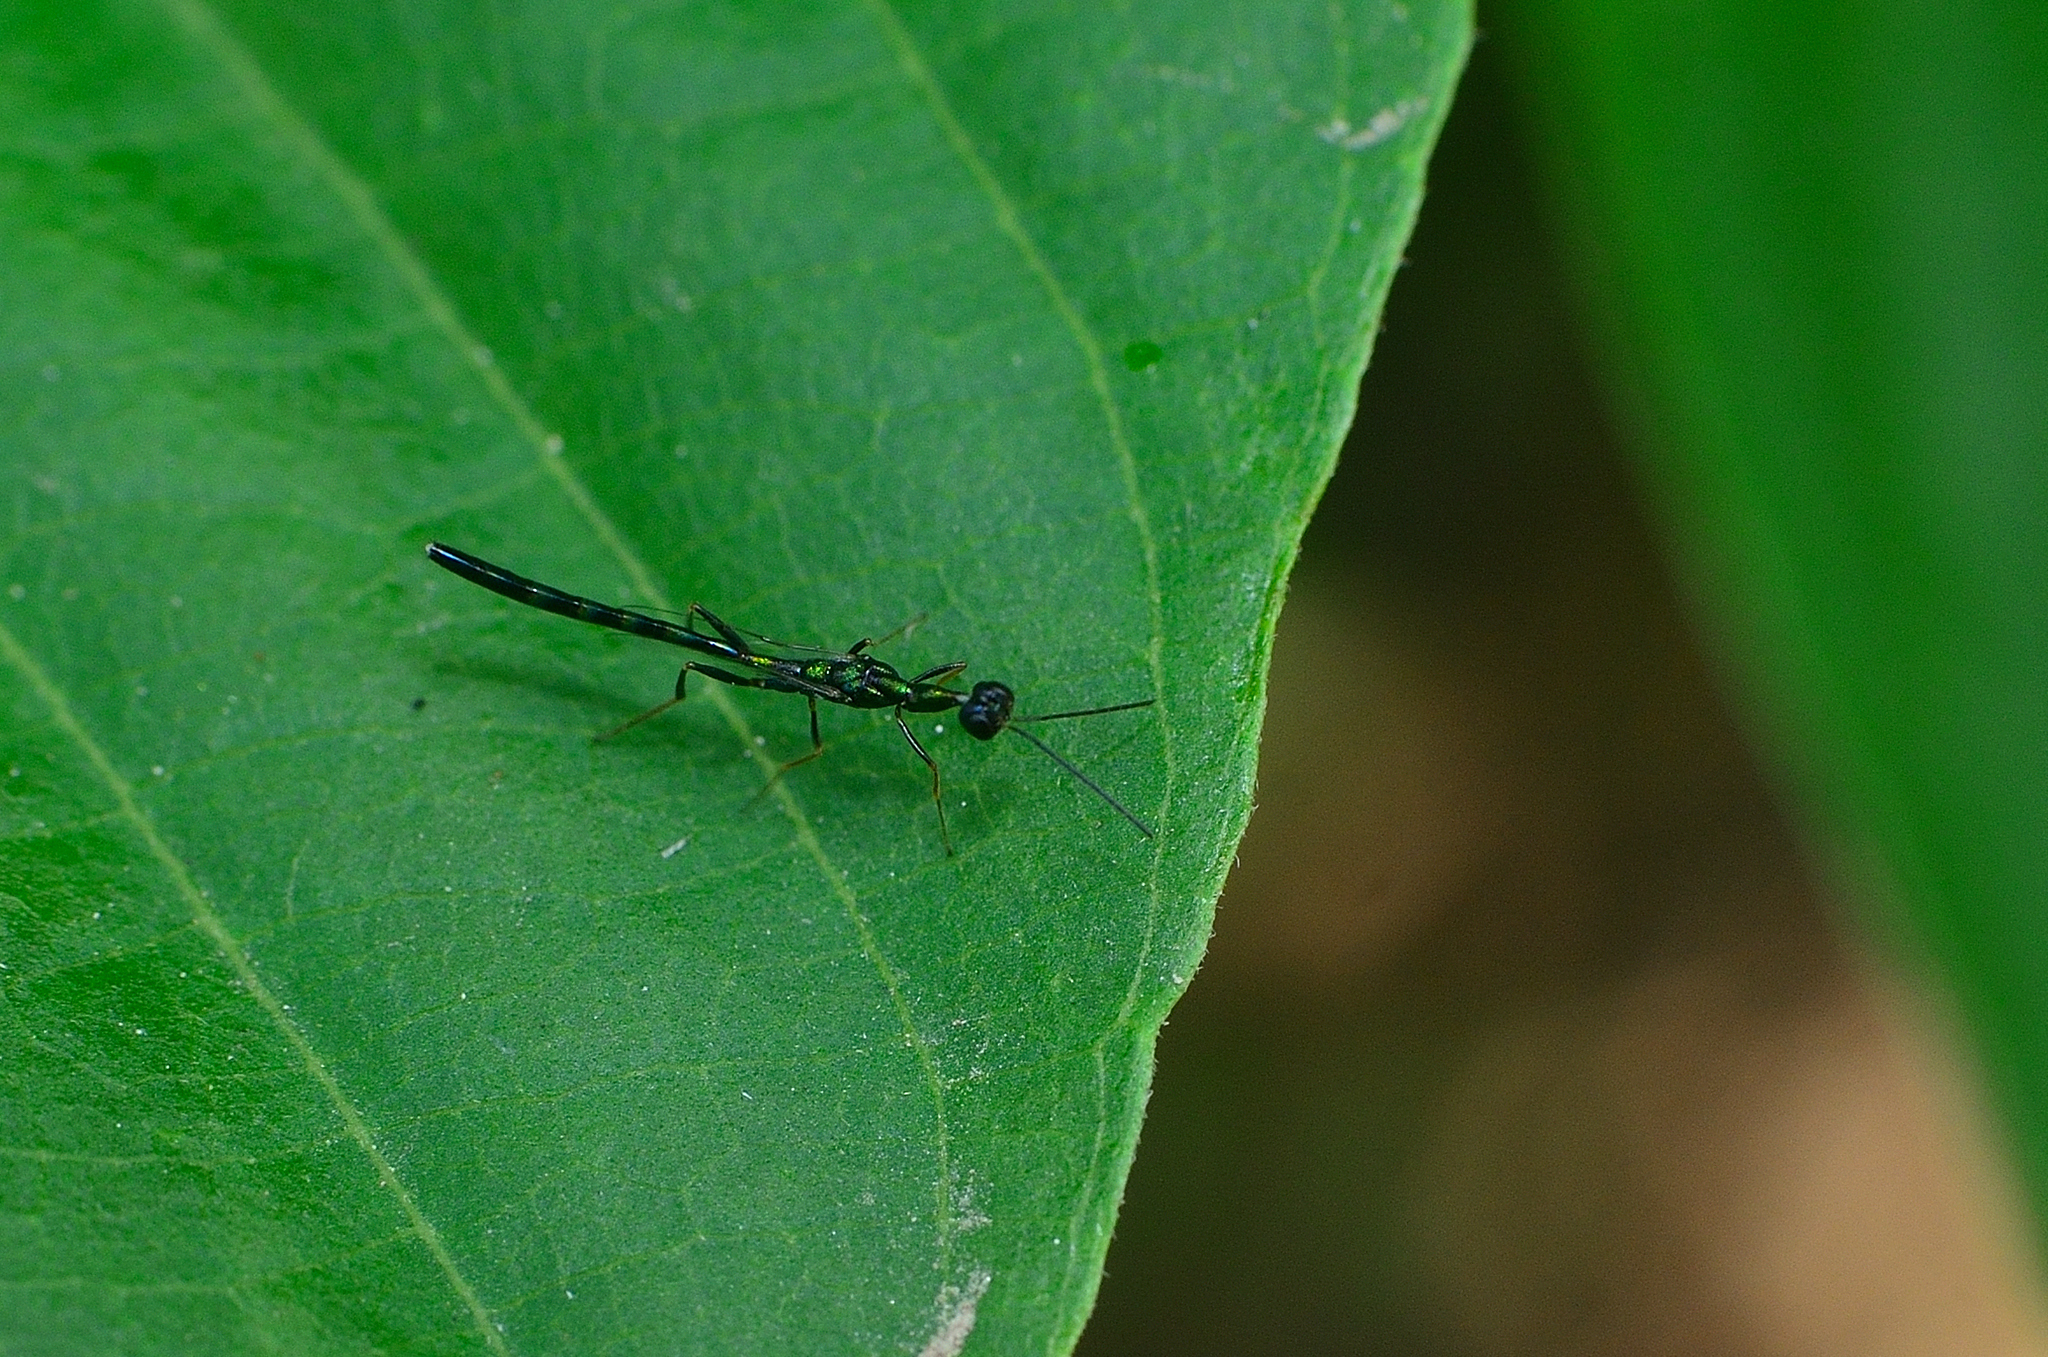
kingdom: Animalia
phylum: Arthropoda
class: Insecta
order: Hymenoptera
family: Pteromalidae
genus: Doddifoenus
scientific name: Doddifoenus
